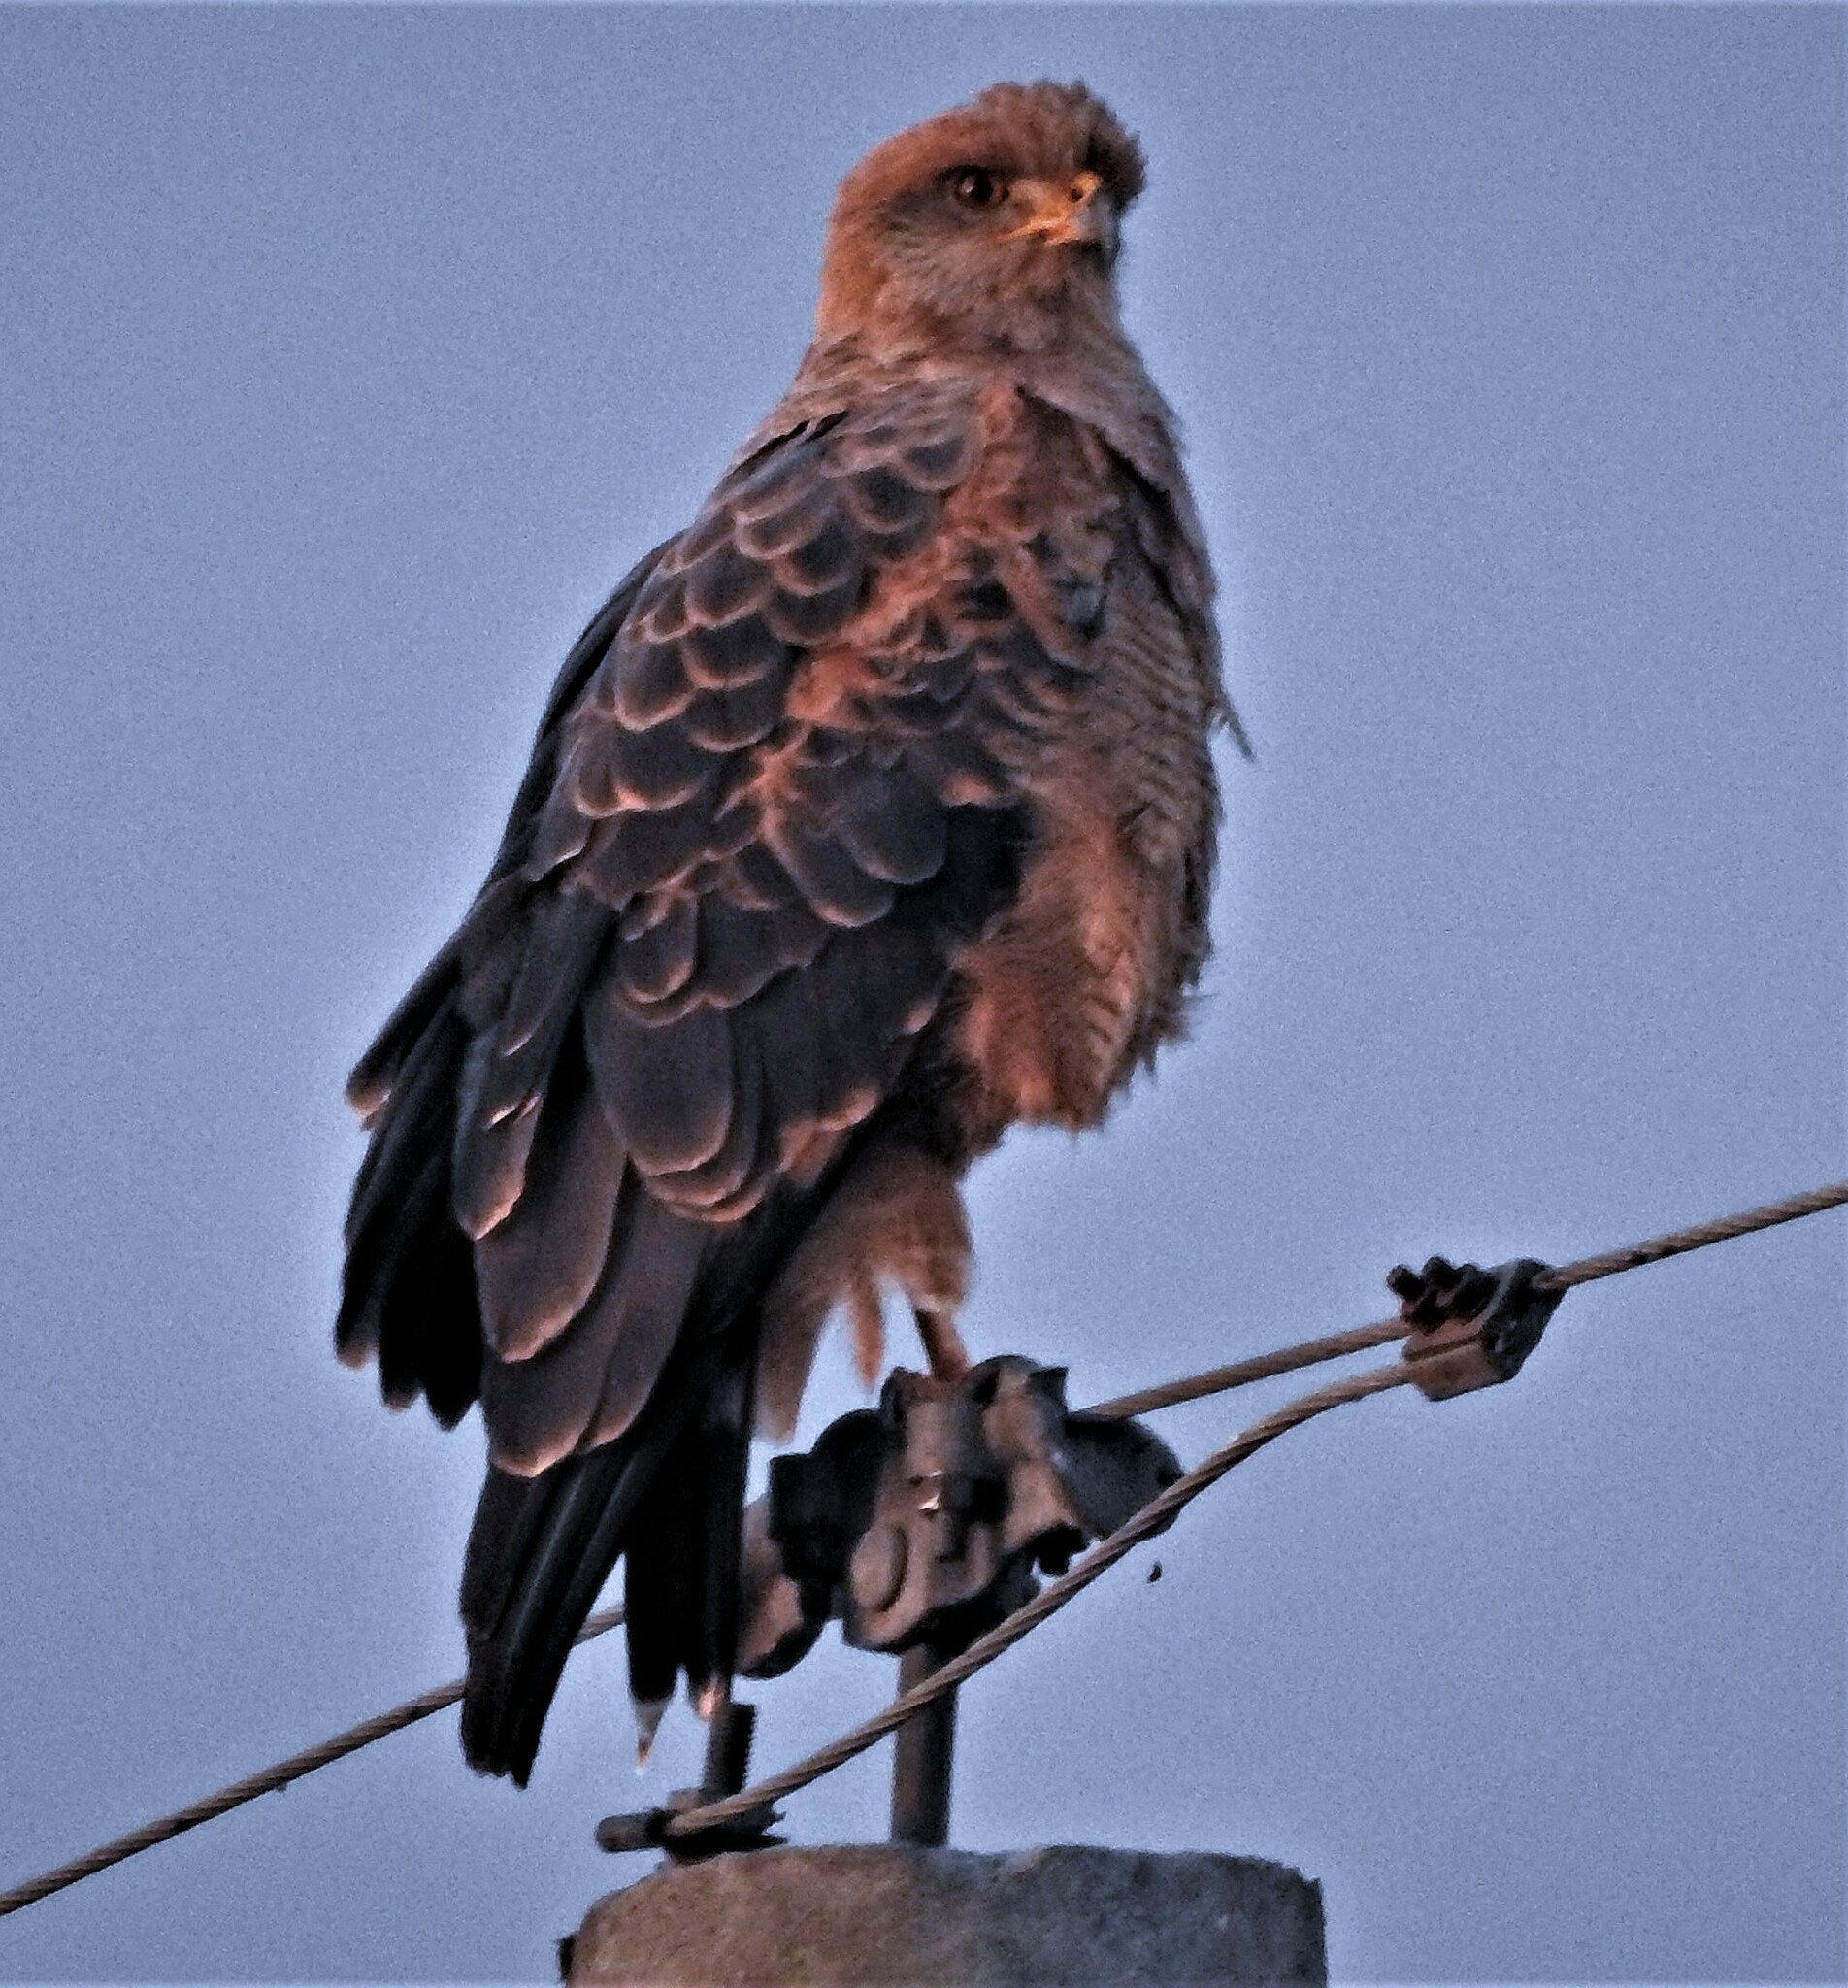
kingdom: Animalia
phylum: Chordata
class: Aves
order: Accipitriformes
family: Accipitridae
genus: Buteogallus
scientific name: Buteogallus meridionalis
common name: Savanna hawk
